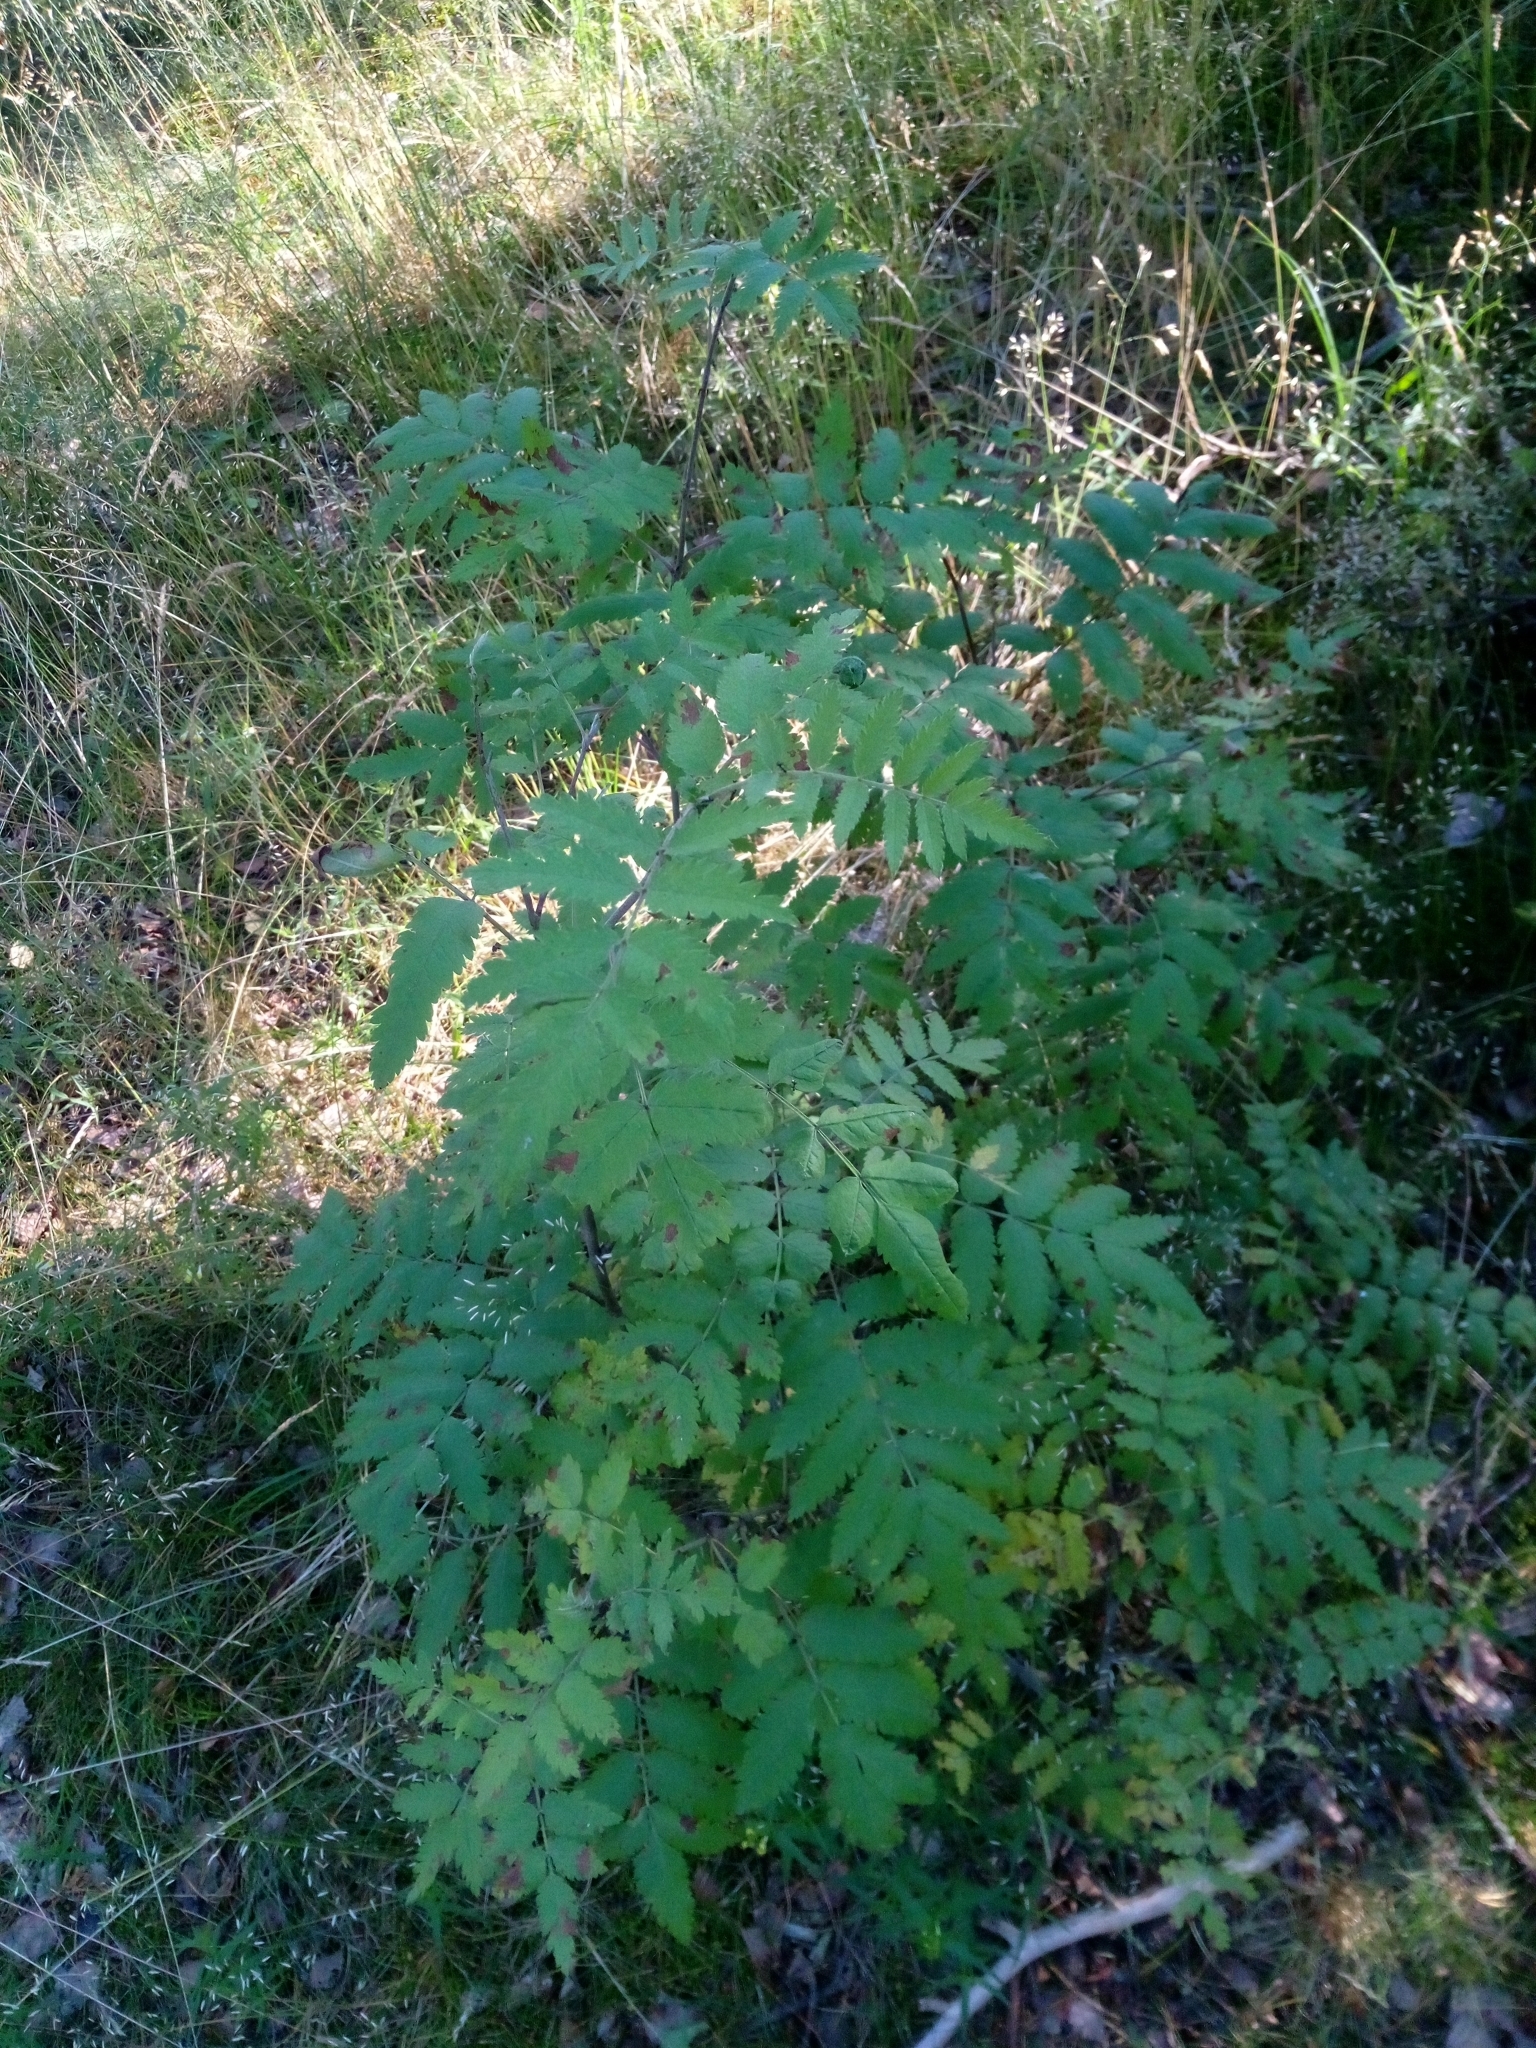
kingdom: Plantae
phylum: Tracheophyta
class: Magnoliopsida
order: Rosales
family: Rosaceae
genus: Sorbus
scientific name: Sorbus aucuparia
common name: Rowan
